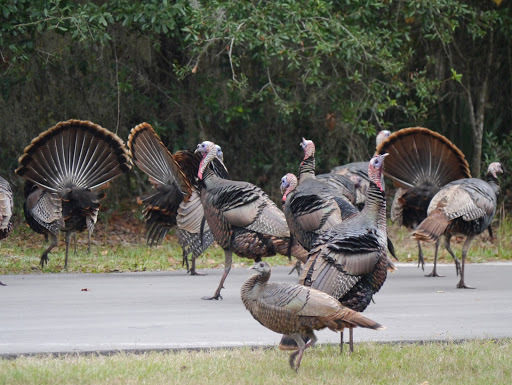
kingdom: Animalia
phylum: Chordata
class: Aves
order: Galliformes
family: Phasianidae
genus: Meleagris
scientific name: Meleagris gallopavo
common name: Wild turkey
